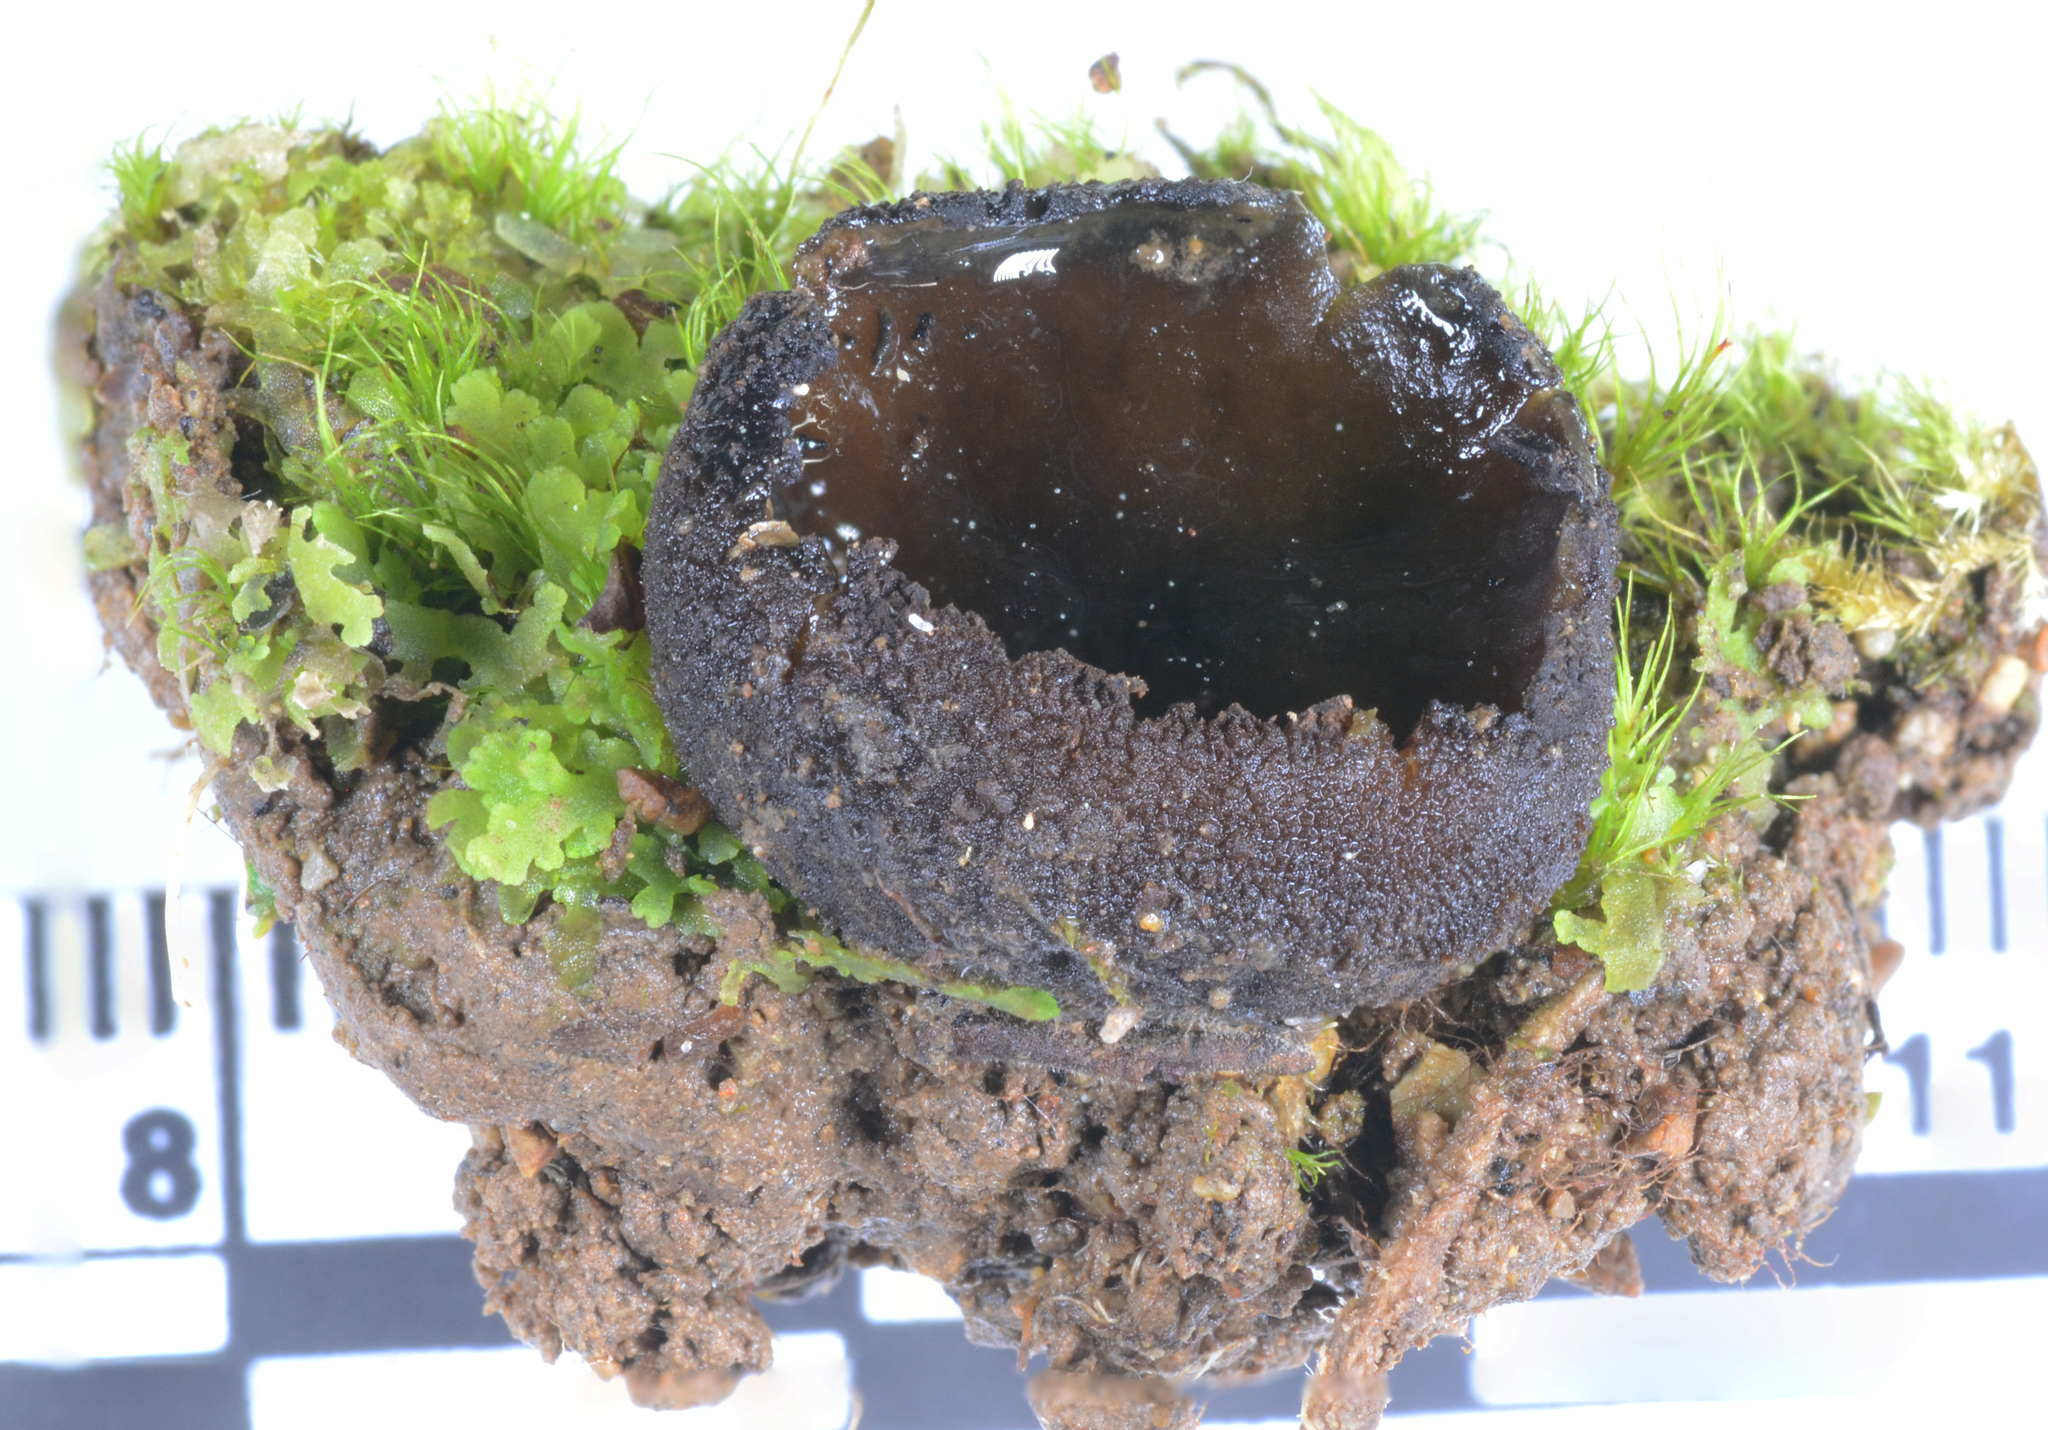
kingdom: Fungi
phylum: Ascomycota
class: Pezizomycetes
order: Pezizales
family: Pyronemataceae
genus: Aleurina
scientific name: Aleurina calospora
